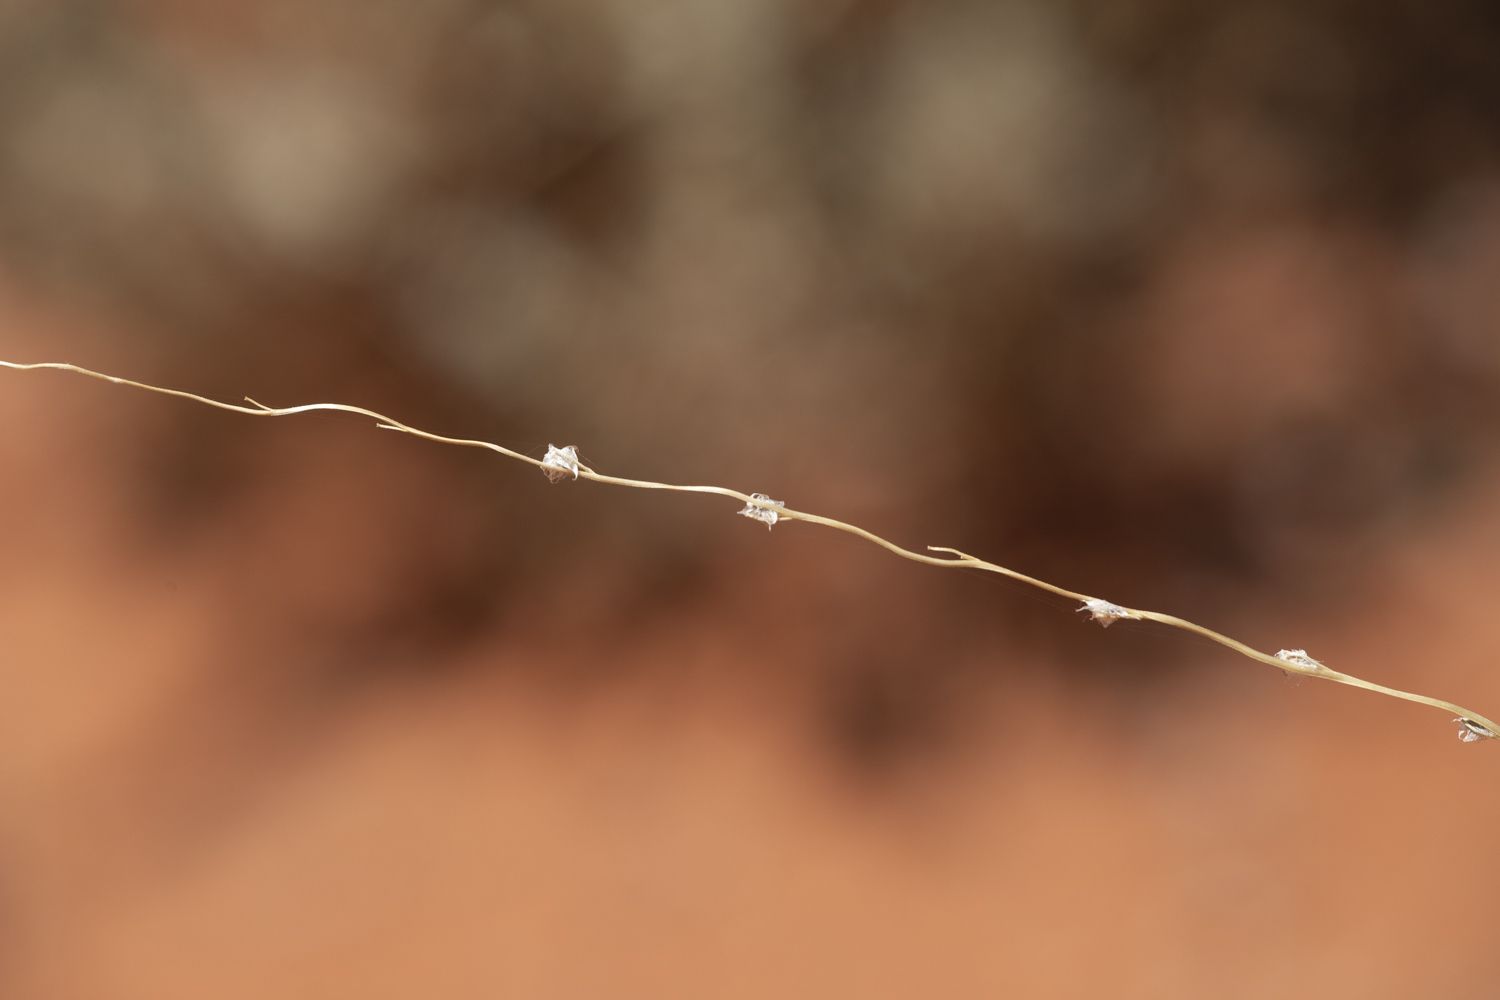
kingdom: Plantae
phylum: Tracheophyta
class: Liliopsida
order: Poales
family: Poaceae
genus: Digitaria
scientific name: Digitaria divaricatissima
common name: Crabgrass
